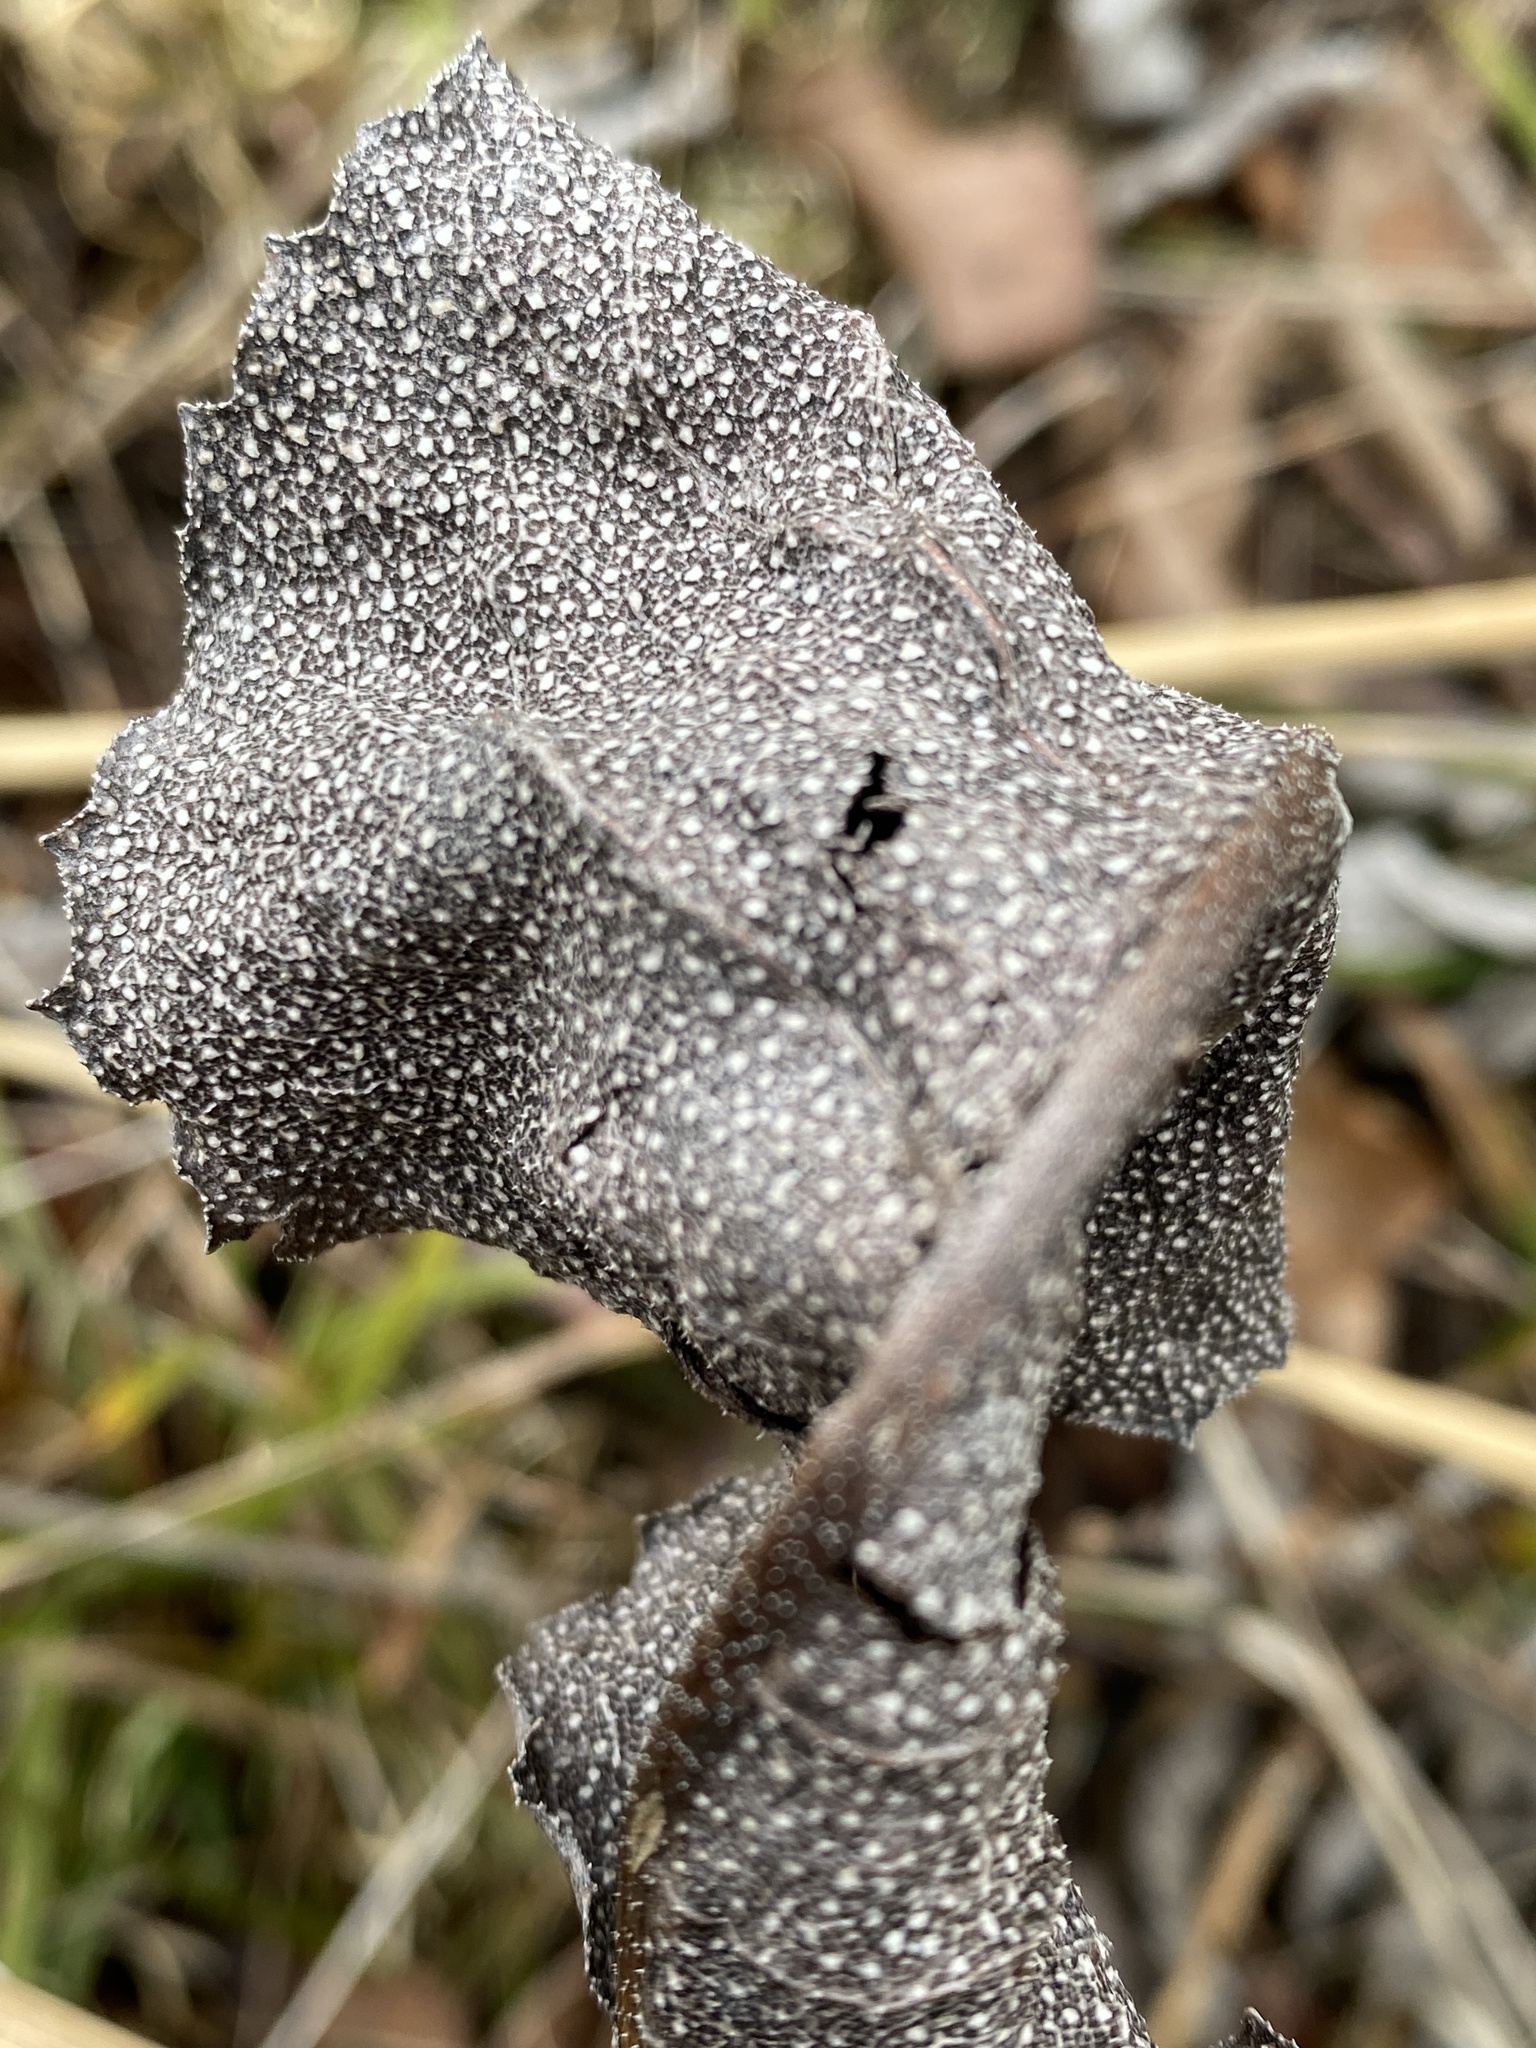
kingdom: Plantae
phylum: Tracheophyta
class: Magnoliopsida
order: Asterales
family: Asteraceae
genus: Silphium
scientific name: Silphium terebinthinaceum
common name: Basal-leaf rosinweed
